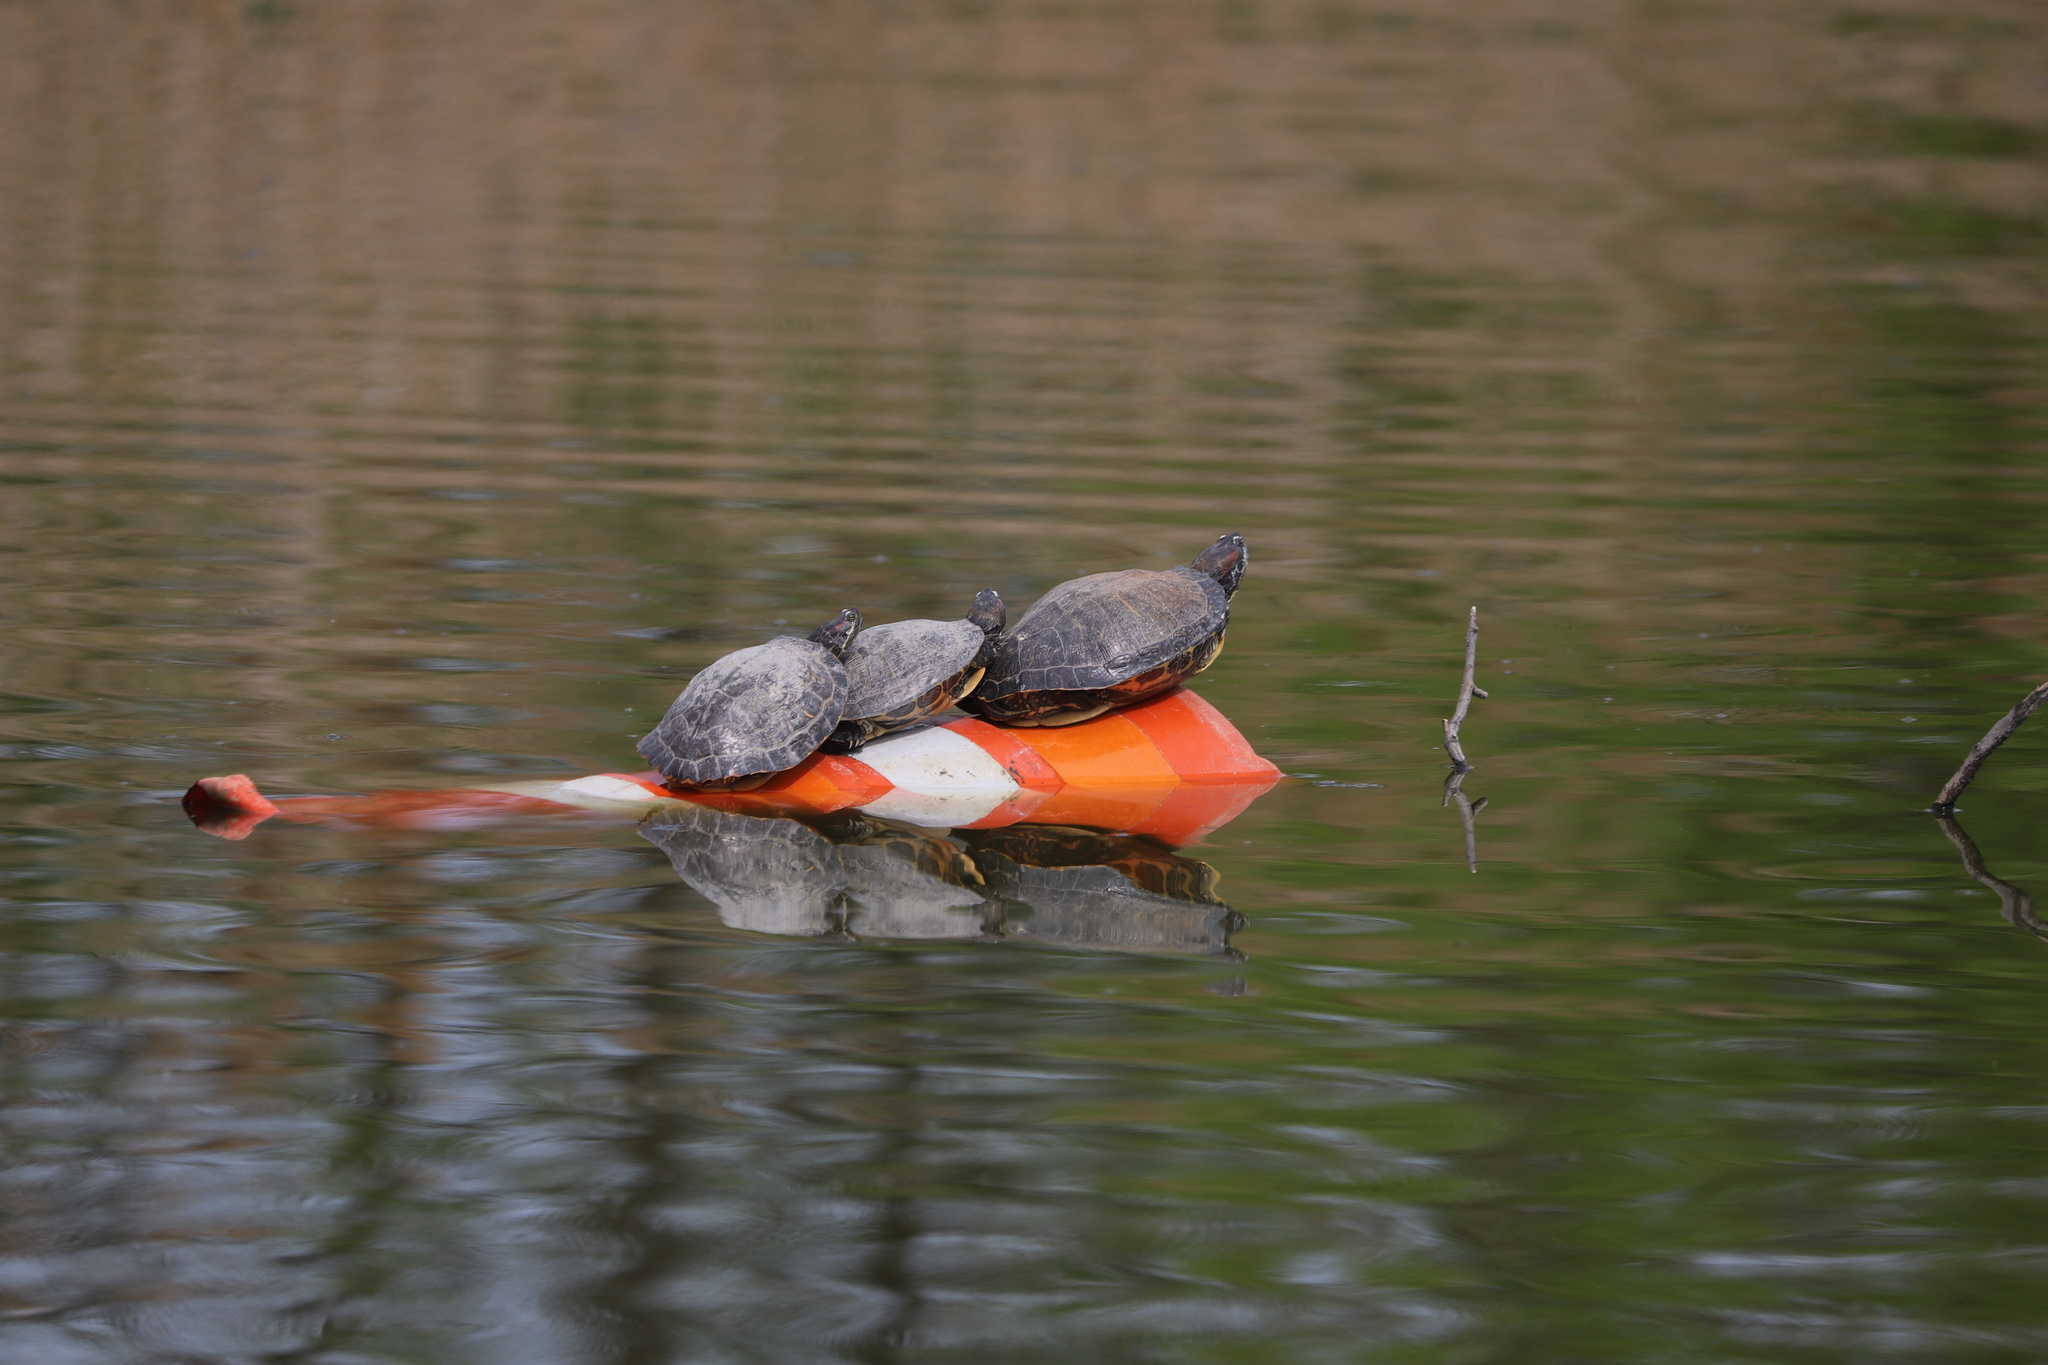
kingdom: Animalia
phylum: Chordata
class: Testudines
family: Emydidae
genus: Trachemys
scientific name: Trachemys scripta
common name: Slider
